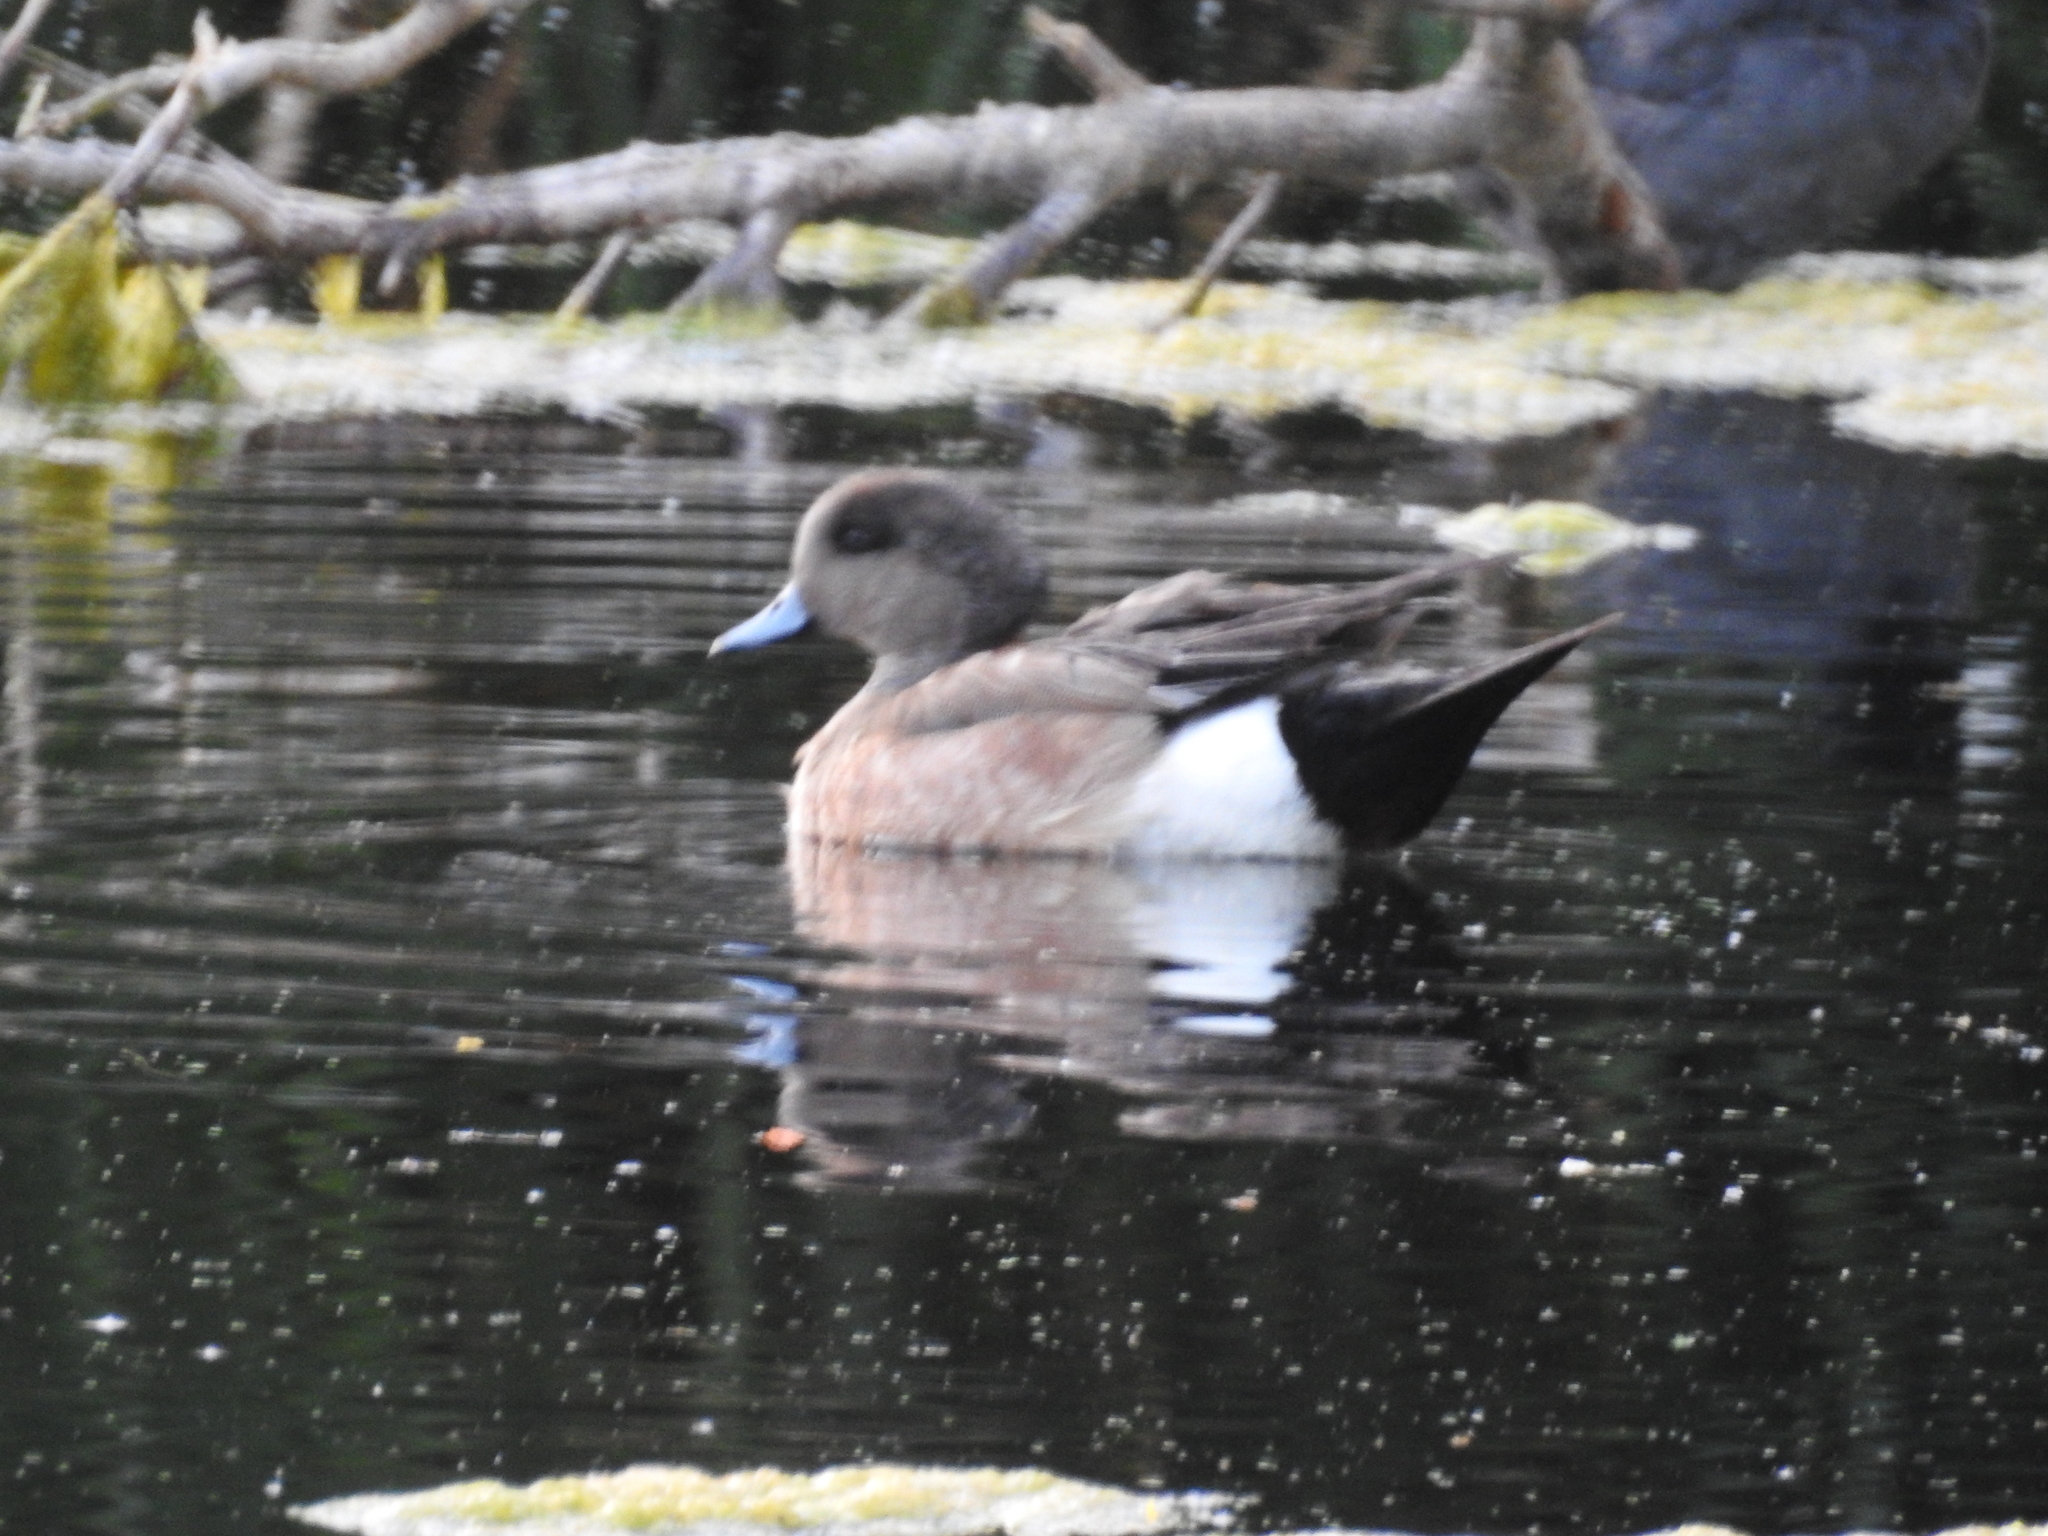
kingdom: Animalia
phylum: Chordata
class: Aves
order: Anseriformes
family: Anatidae
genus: Mareca
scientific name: Mareca americana
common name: American wigeon
